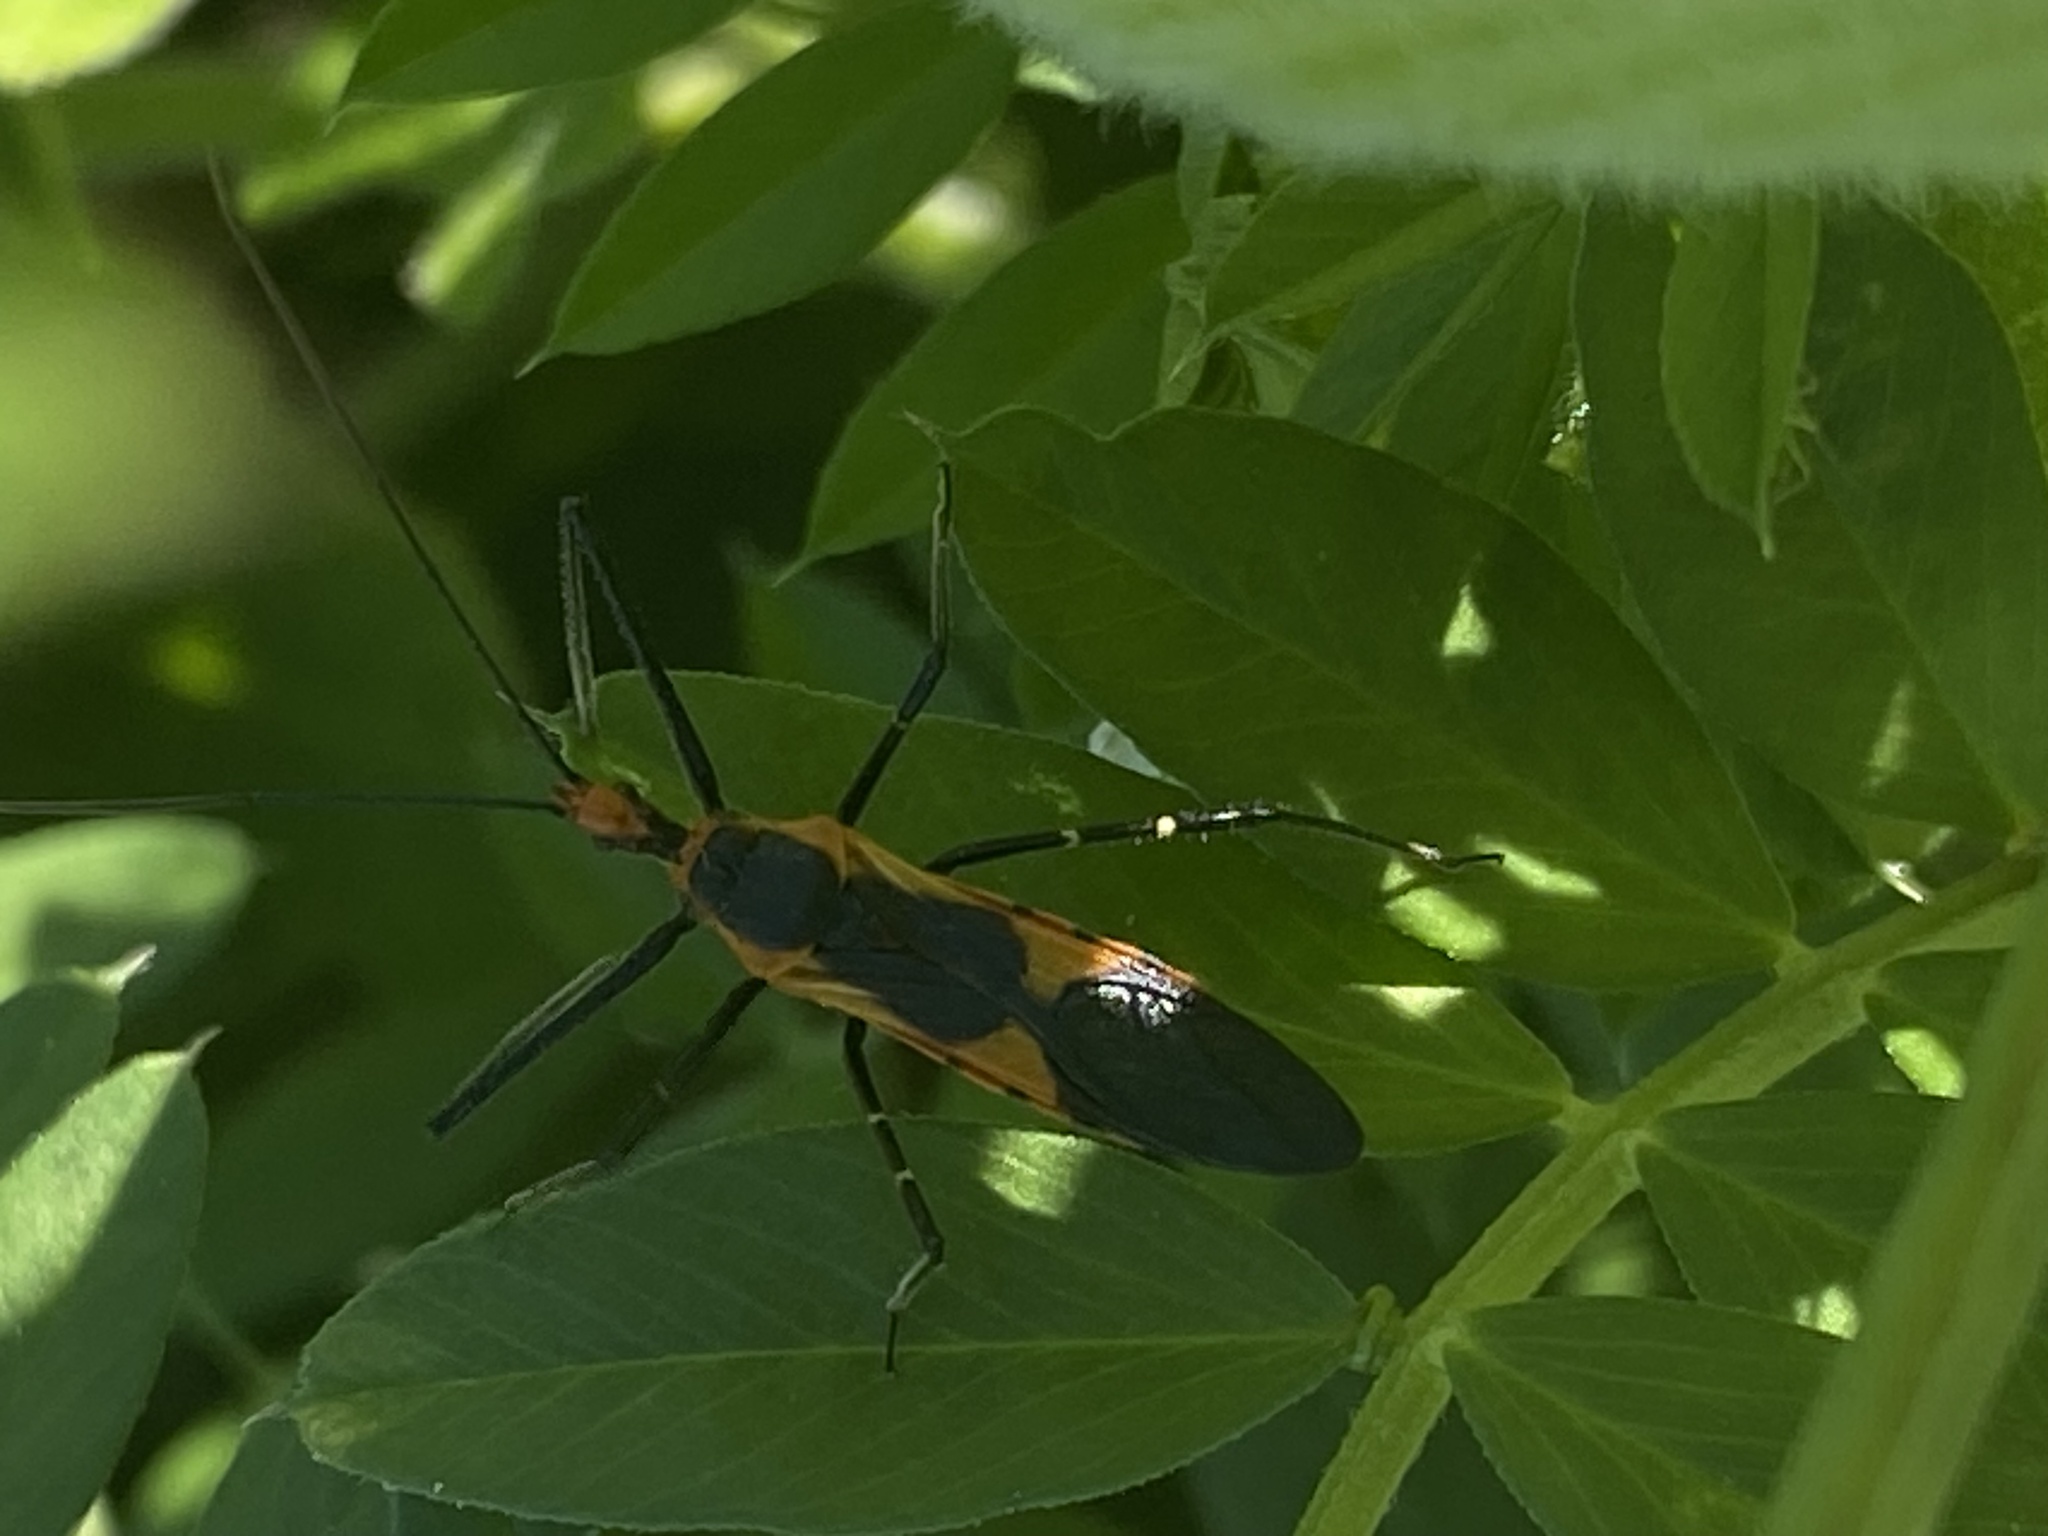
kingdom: Animalia
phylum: Arthropoda
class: Insecta
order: Hemiptera
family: Reduviidae
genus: Zelus
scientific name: Zelus longipes
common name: Milkweed assassin bug
